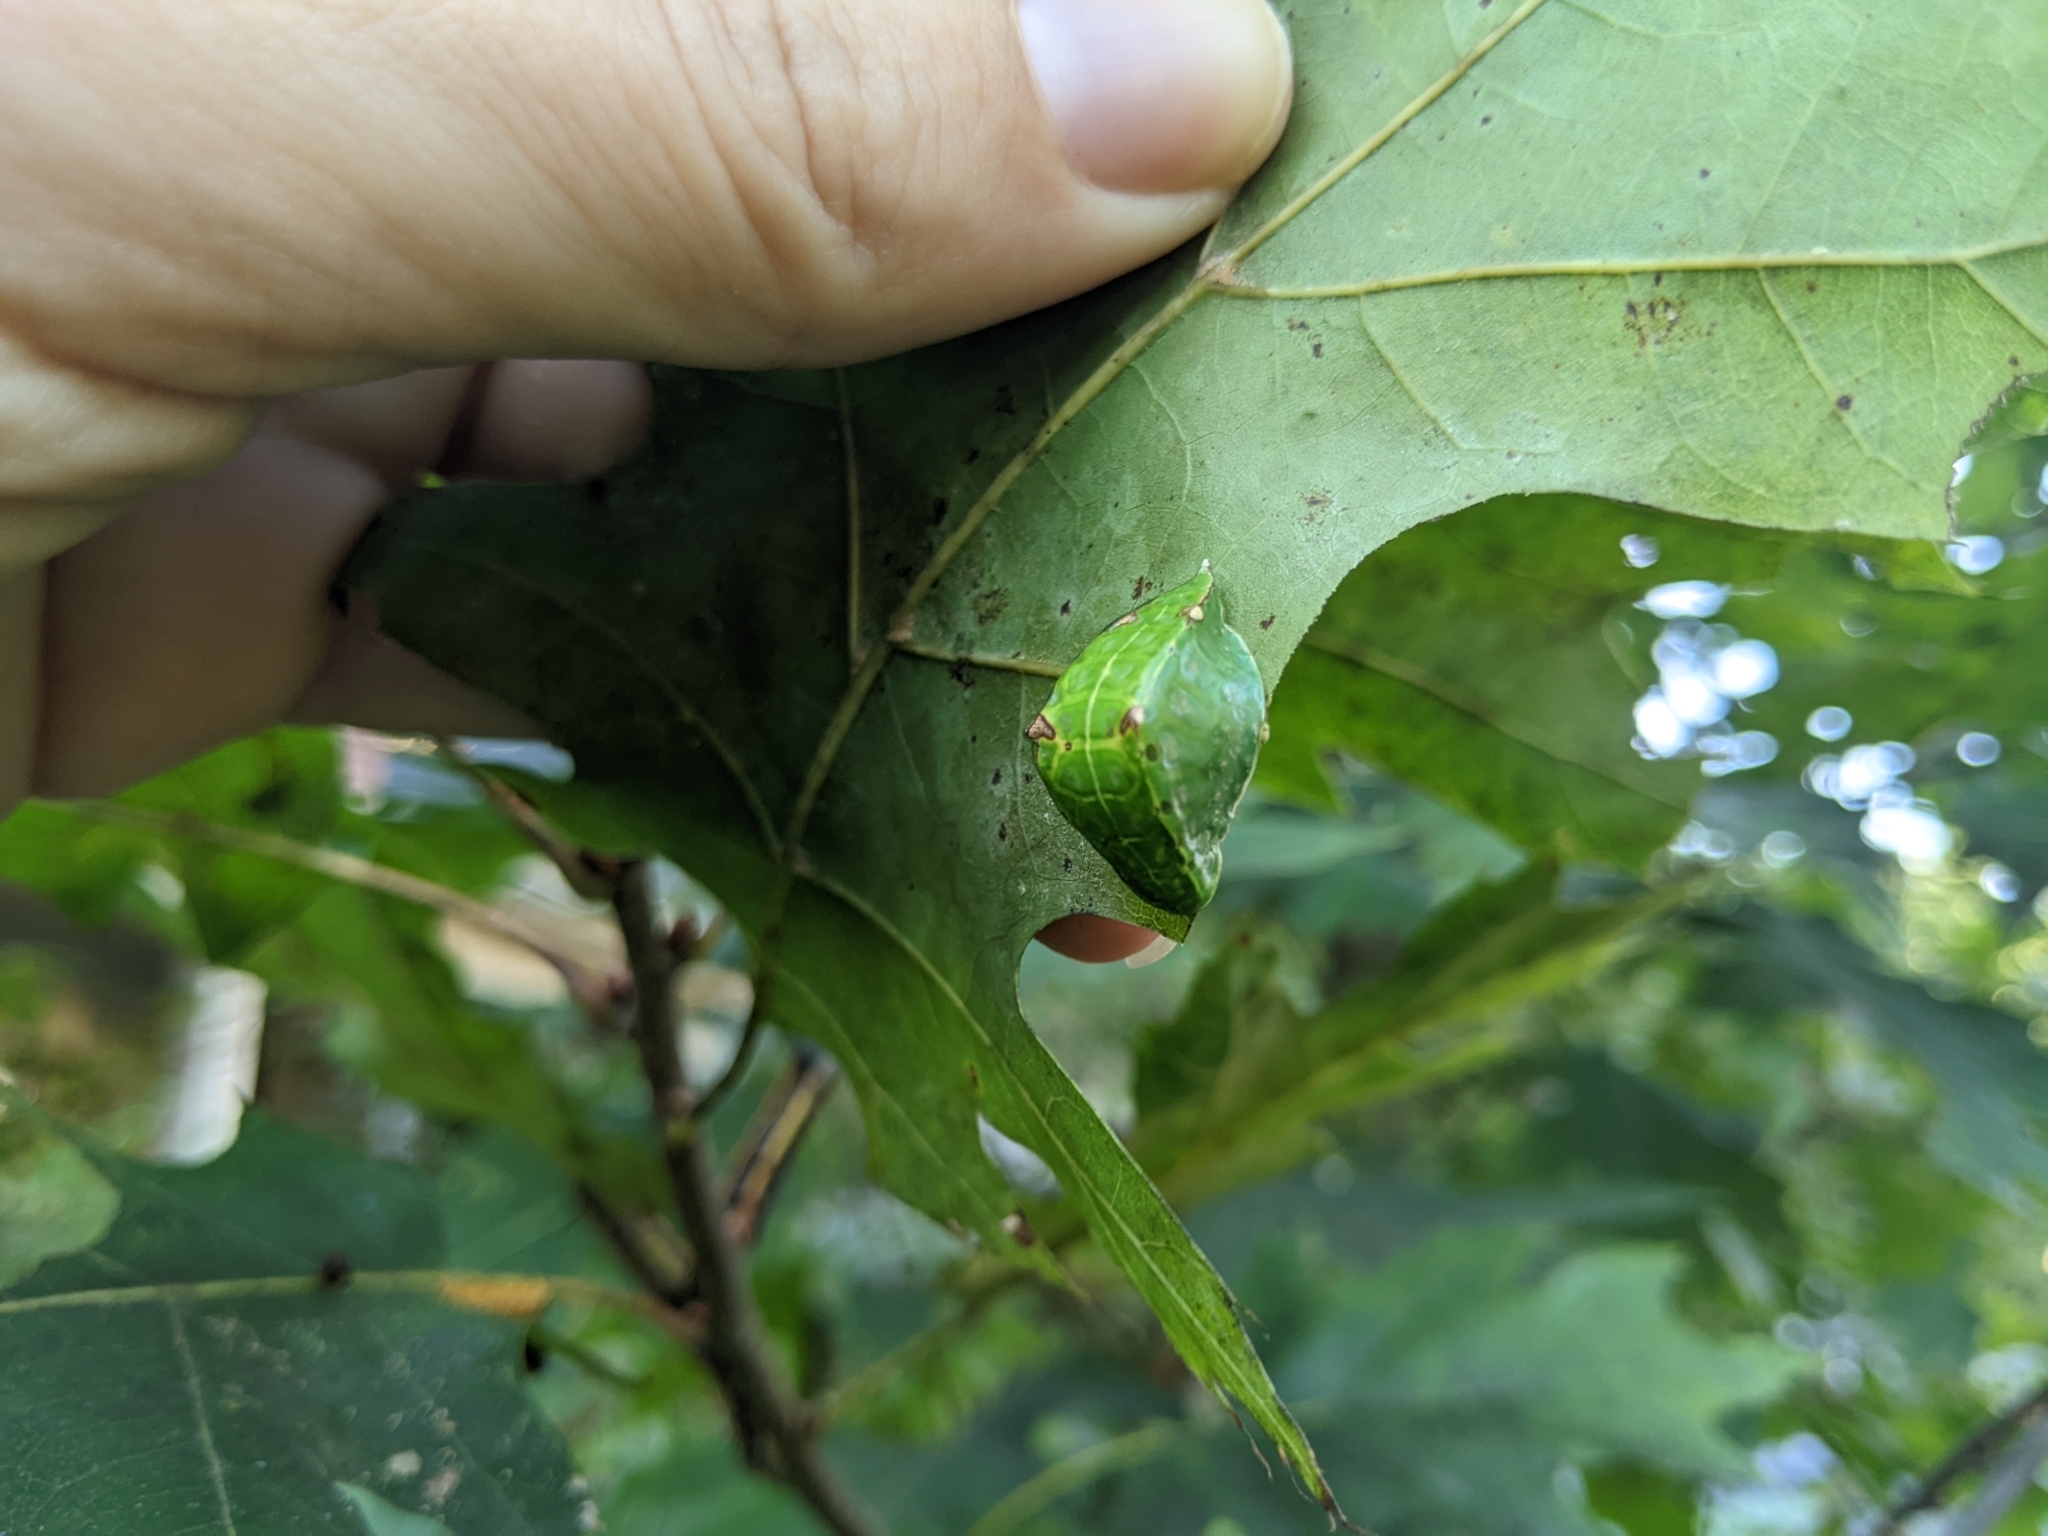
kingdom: Animalia
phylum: Arthropoda
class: Insecta
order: Lepidoptera
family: Limacodidae
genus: Prolimacodes
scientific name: Prolimacodes badia
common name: Skiff moth
